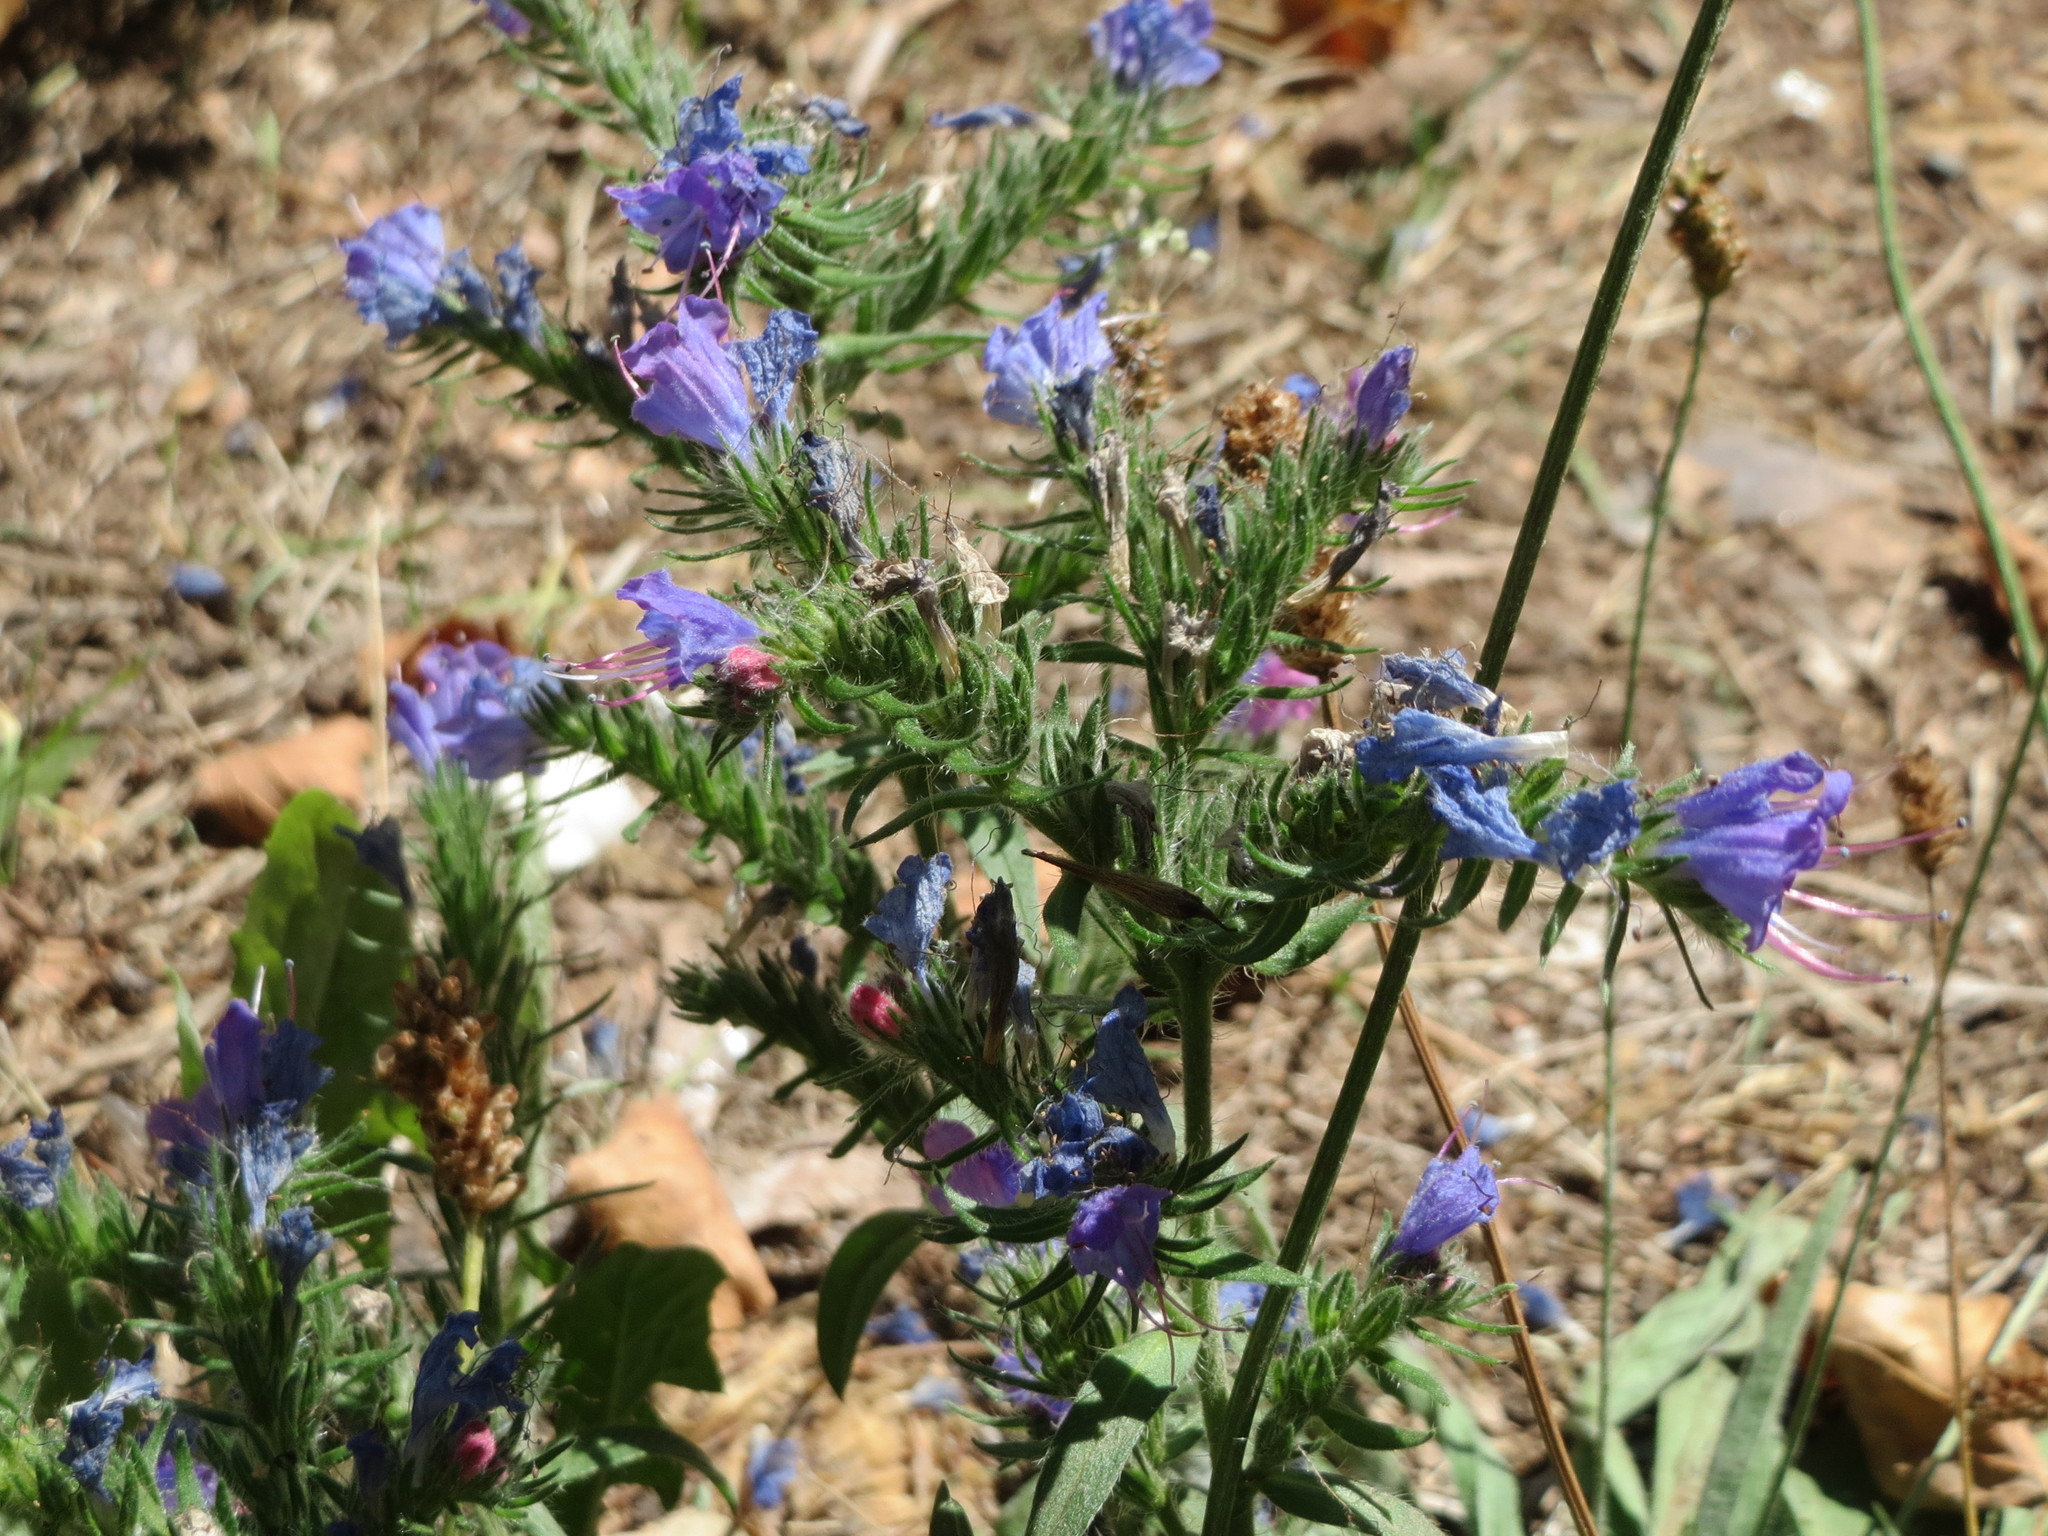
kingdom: Plantae
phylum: Tracheophyta
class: Magnoliopsida
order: Boraginales
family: Boraginaceae
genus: Echium
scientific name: Echium vulgare
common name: Common viper's bugloss
